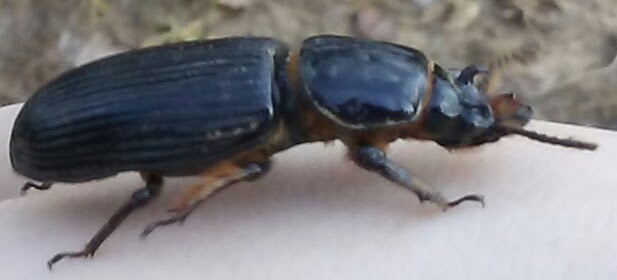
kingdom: Animalia
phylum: Arthropoda
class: Insecta
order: Coleoptera
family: Passalidae
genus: Odontotaenius
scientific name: Odontotaenius disjunctus
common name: Patent leather beetle
